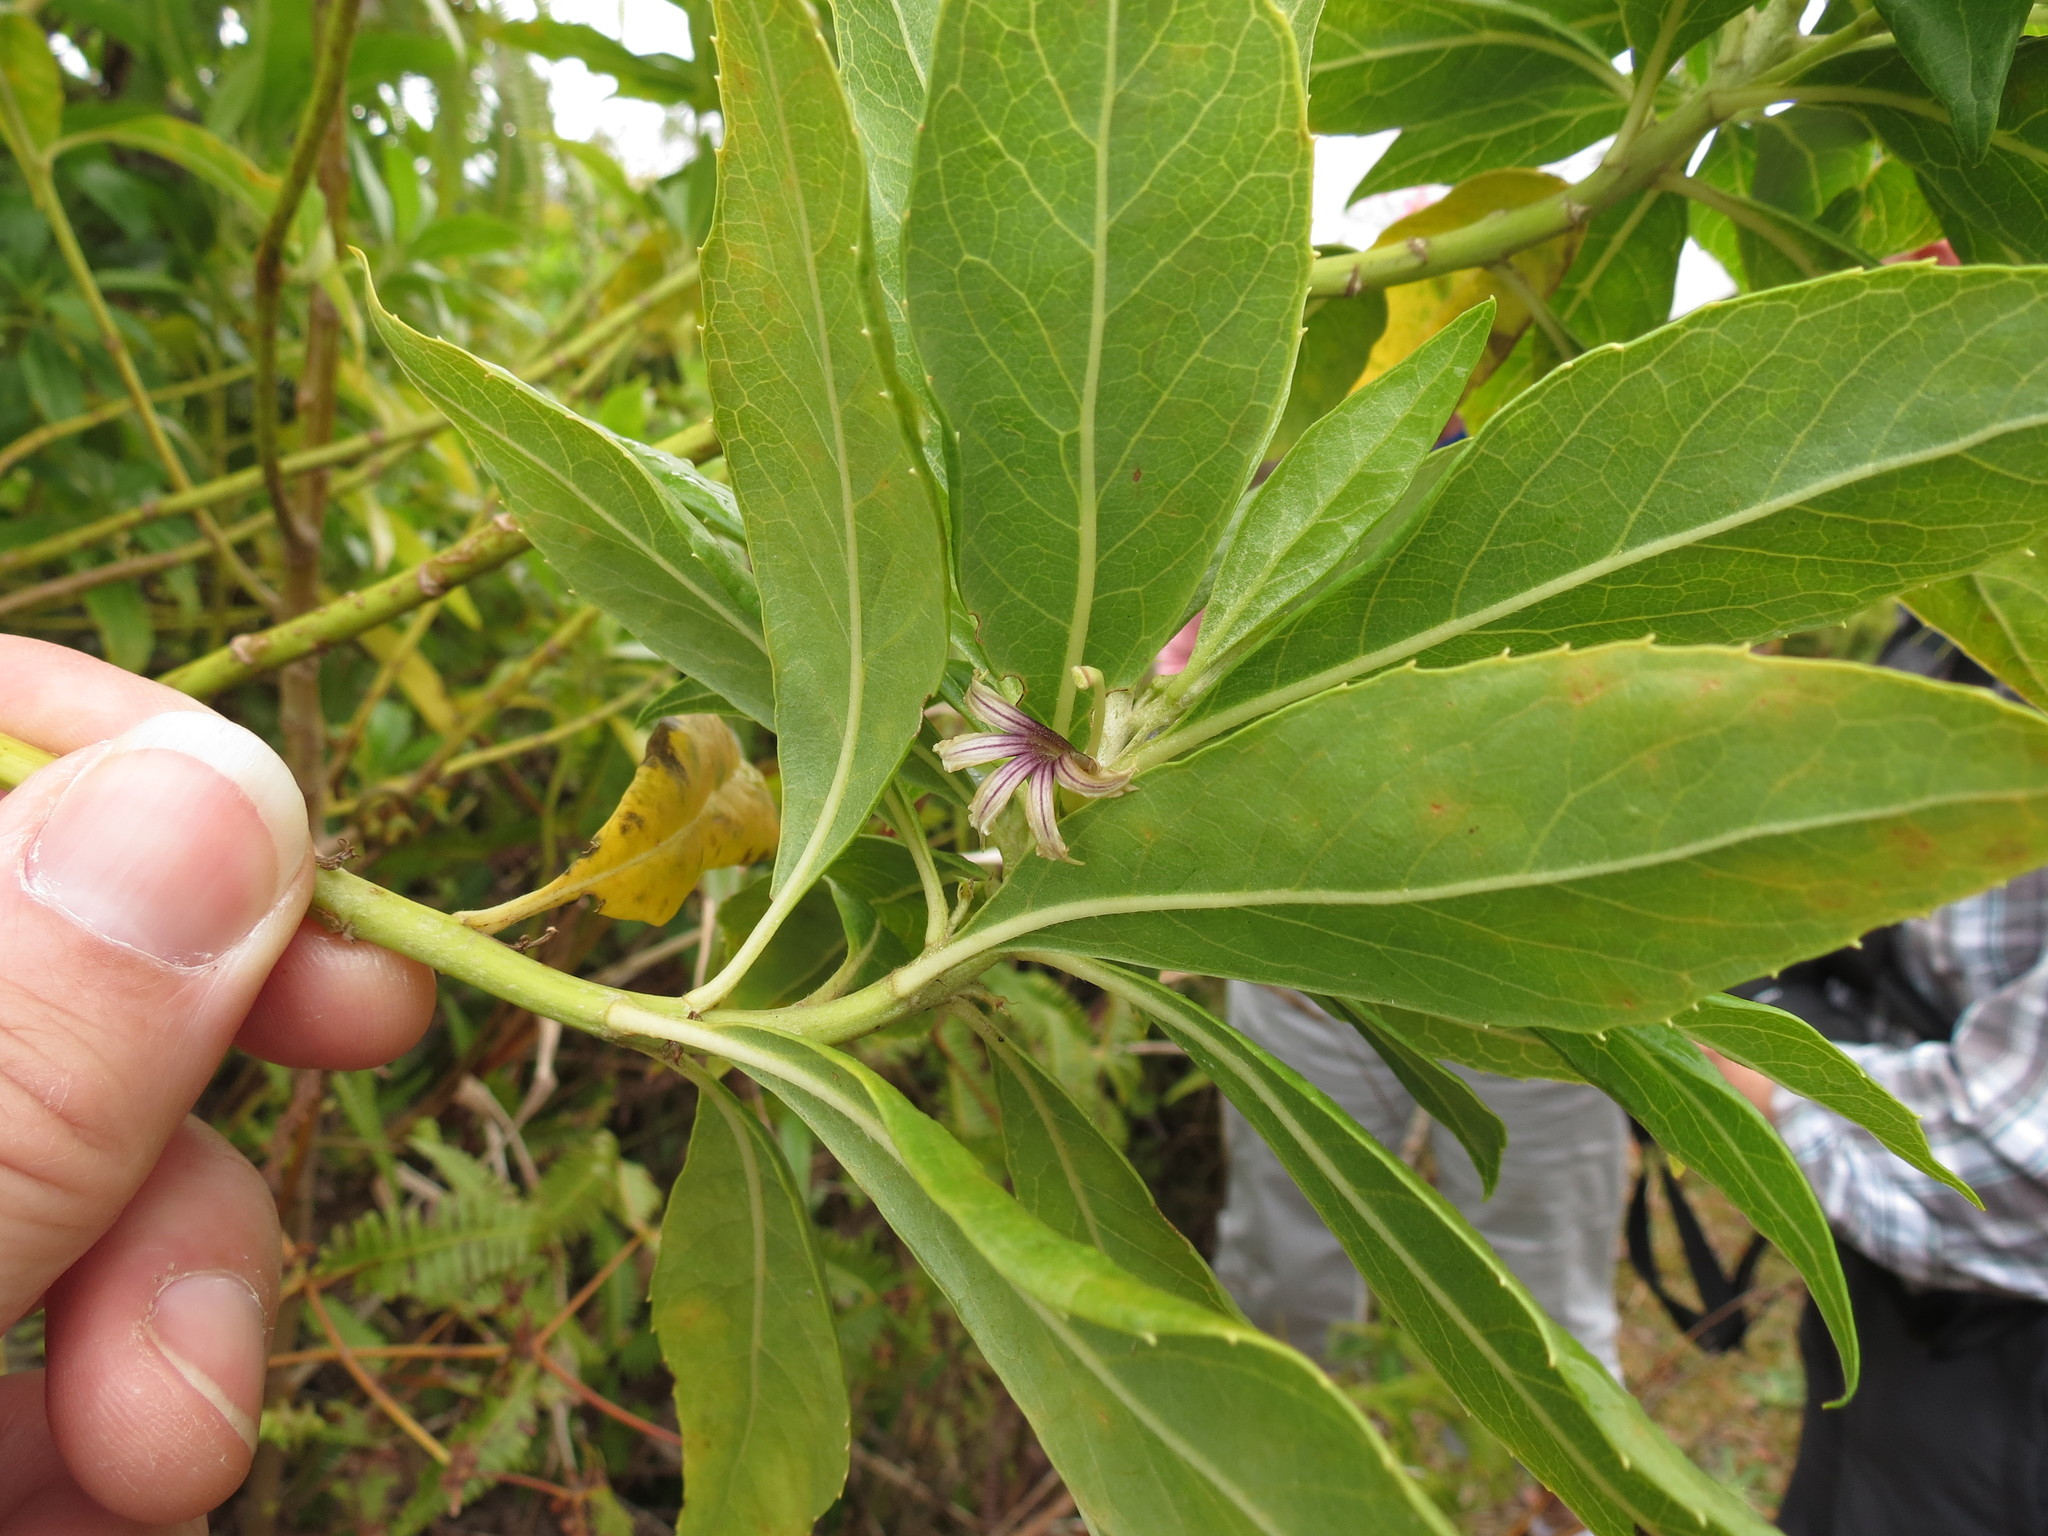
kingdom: Plantae
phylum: Tracheophyta
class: Magnoliopsida
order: Asterales
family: Goodeniaceae
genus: Scaevola
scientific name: Scaevola gaudichaudiana
